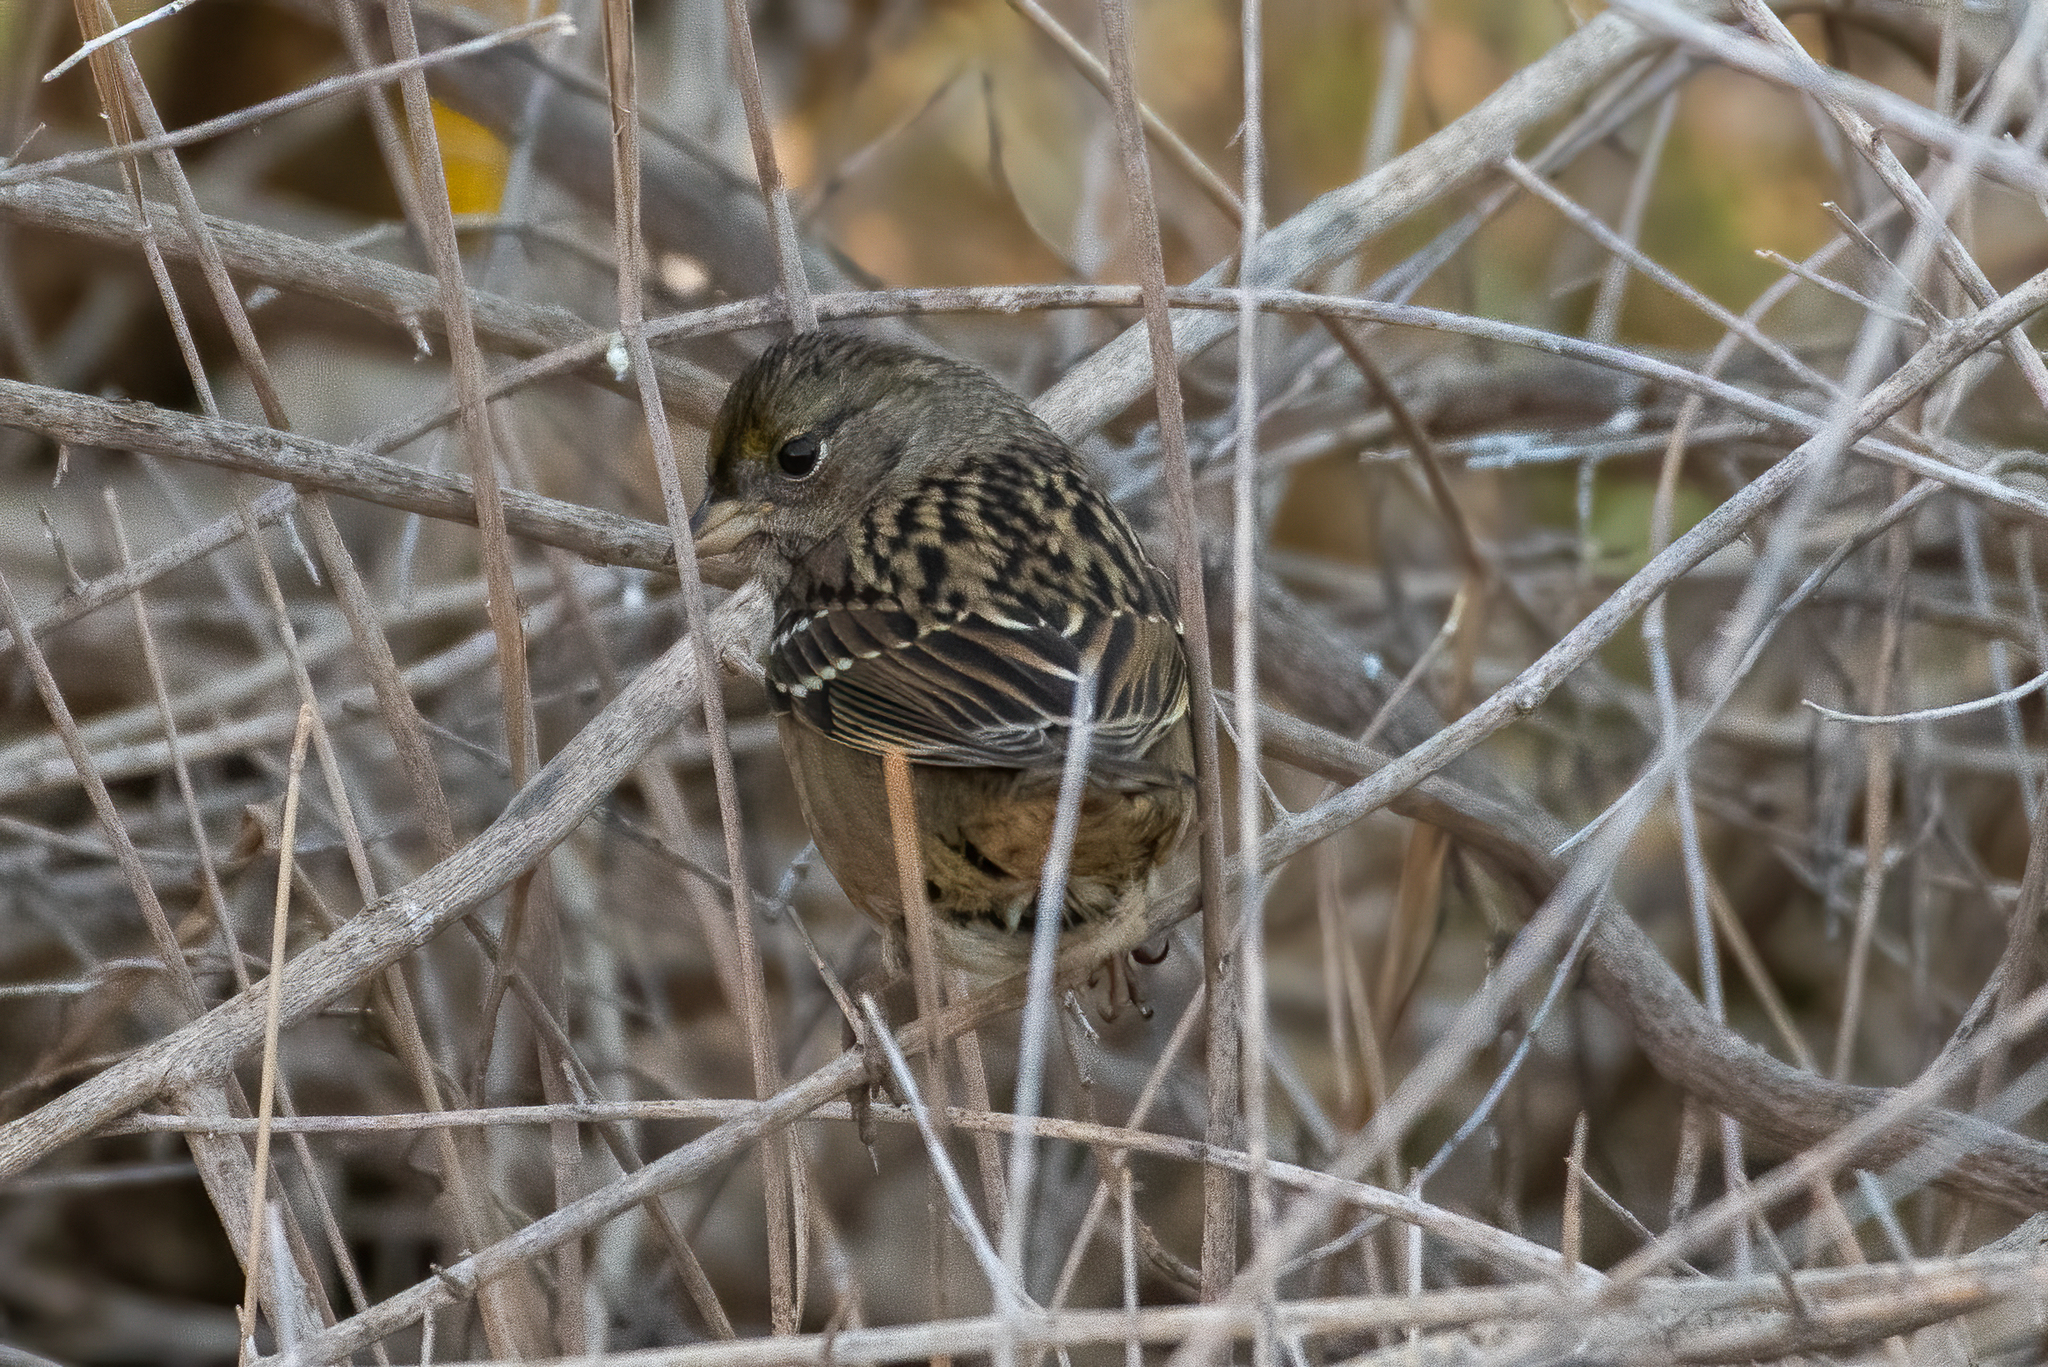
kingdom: Animalia
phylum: Chordata
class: Aves
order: Passeriformes
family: Passerellidae
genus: Zonotrichia
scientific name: Zonotrichia atricapilla
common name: Golden-crowned sparrow
